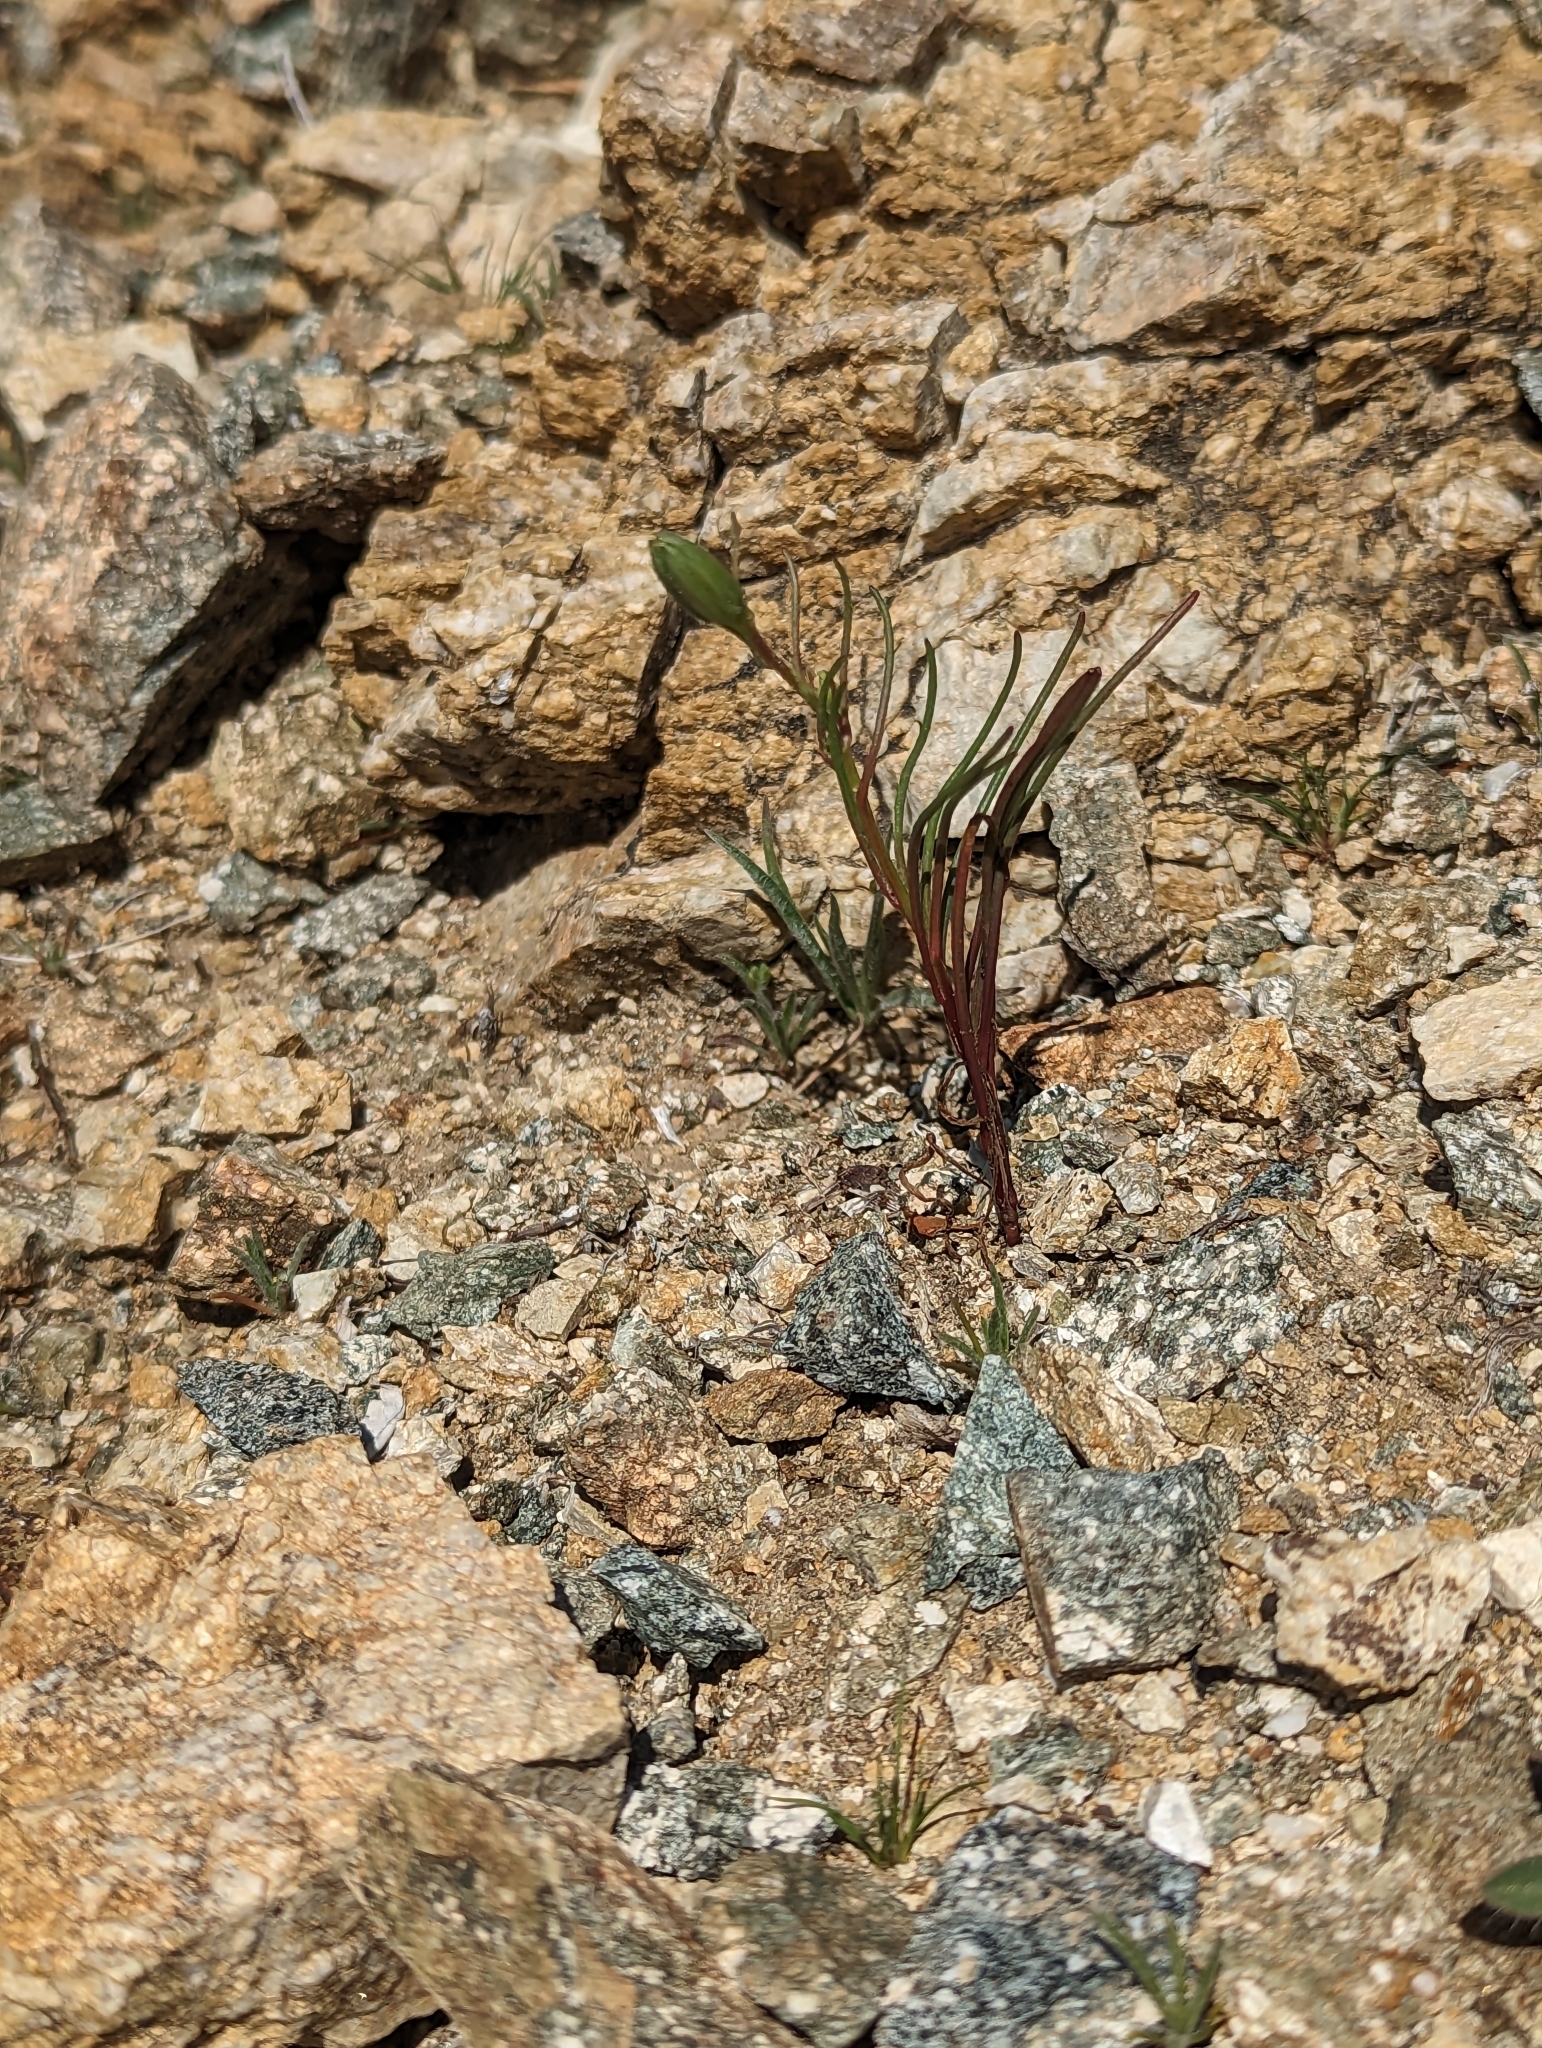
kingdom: Plantae
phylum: Tracheophyta
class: Magnoliopsida
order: Asterales
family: Asteraceae
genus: Chaenactis
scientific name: Chaenactis fremontii
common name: Fremont pincushion
